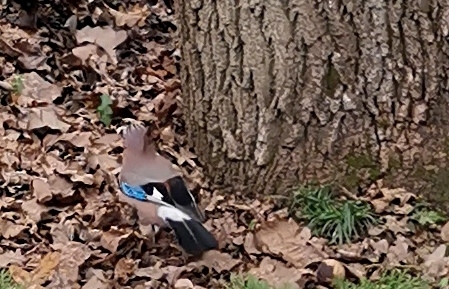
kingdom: Animalia
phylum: Chordata
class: Aves
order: Passeriformes
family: Corvidae
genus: Garrulus
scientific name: Garrulus glandarius
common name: Eurasian jay
